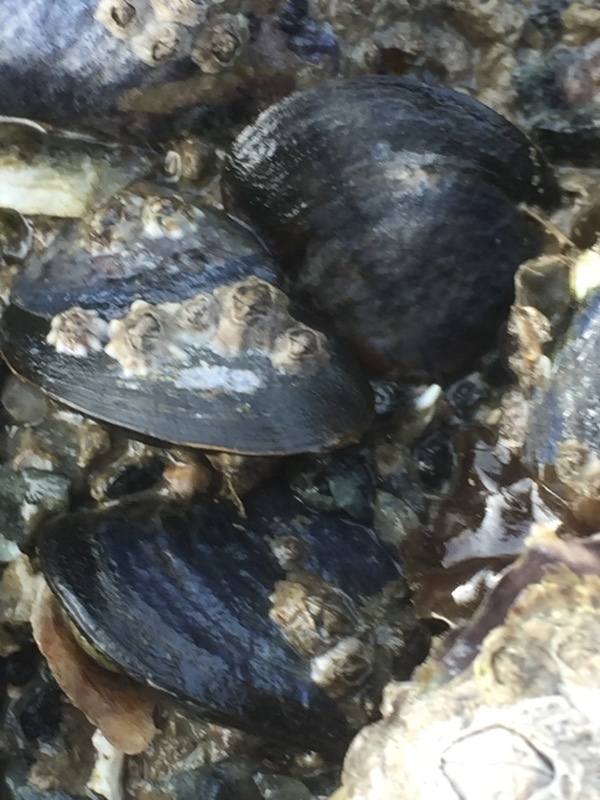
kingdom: Animalia
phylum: Mollusca
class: Bivalvia
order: Mytilida
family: Mytilidae
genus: Mytilus
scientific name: Mytilus edulis
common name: Blue mussel
